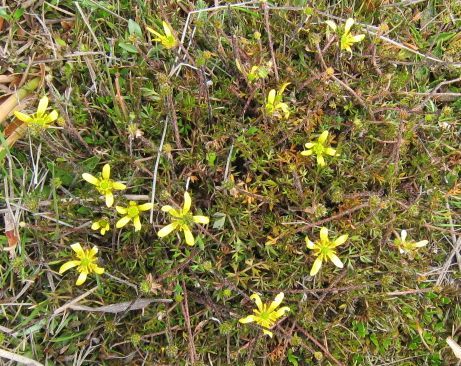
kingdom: Plantae
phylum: Tracheophyta
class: Magnoliopsida
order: Ranunculales
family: Ranunculaceae
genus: Ranunculus
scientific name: Ranunculus gracilipes
